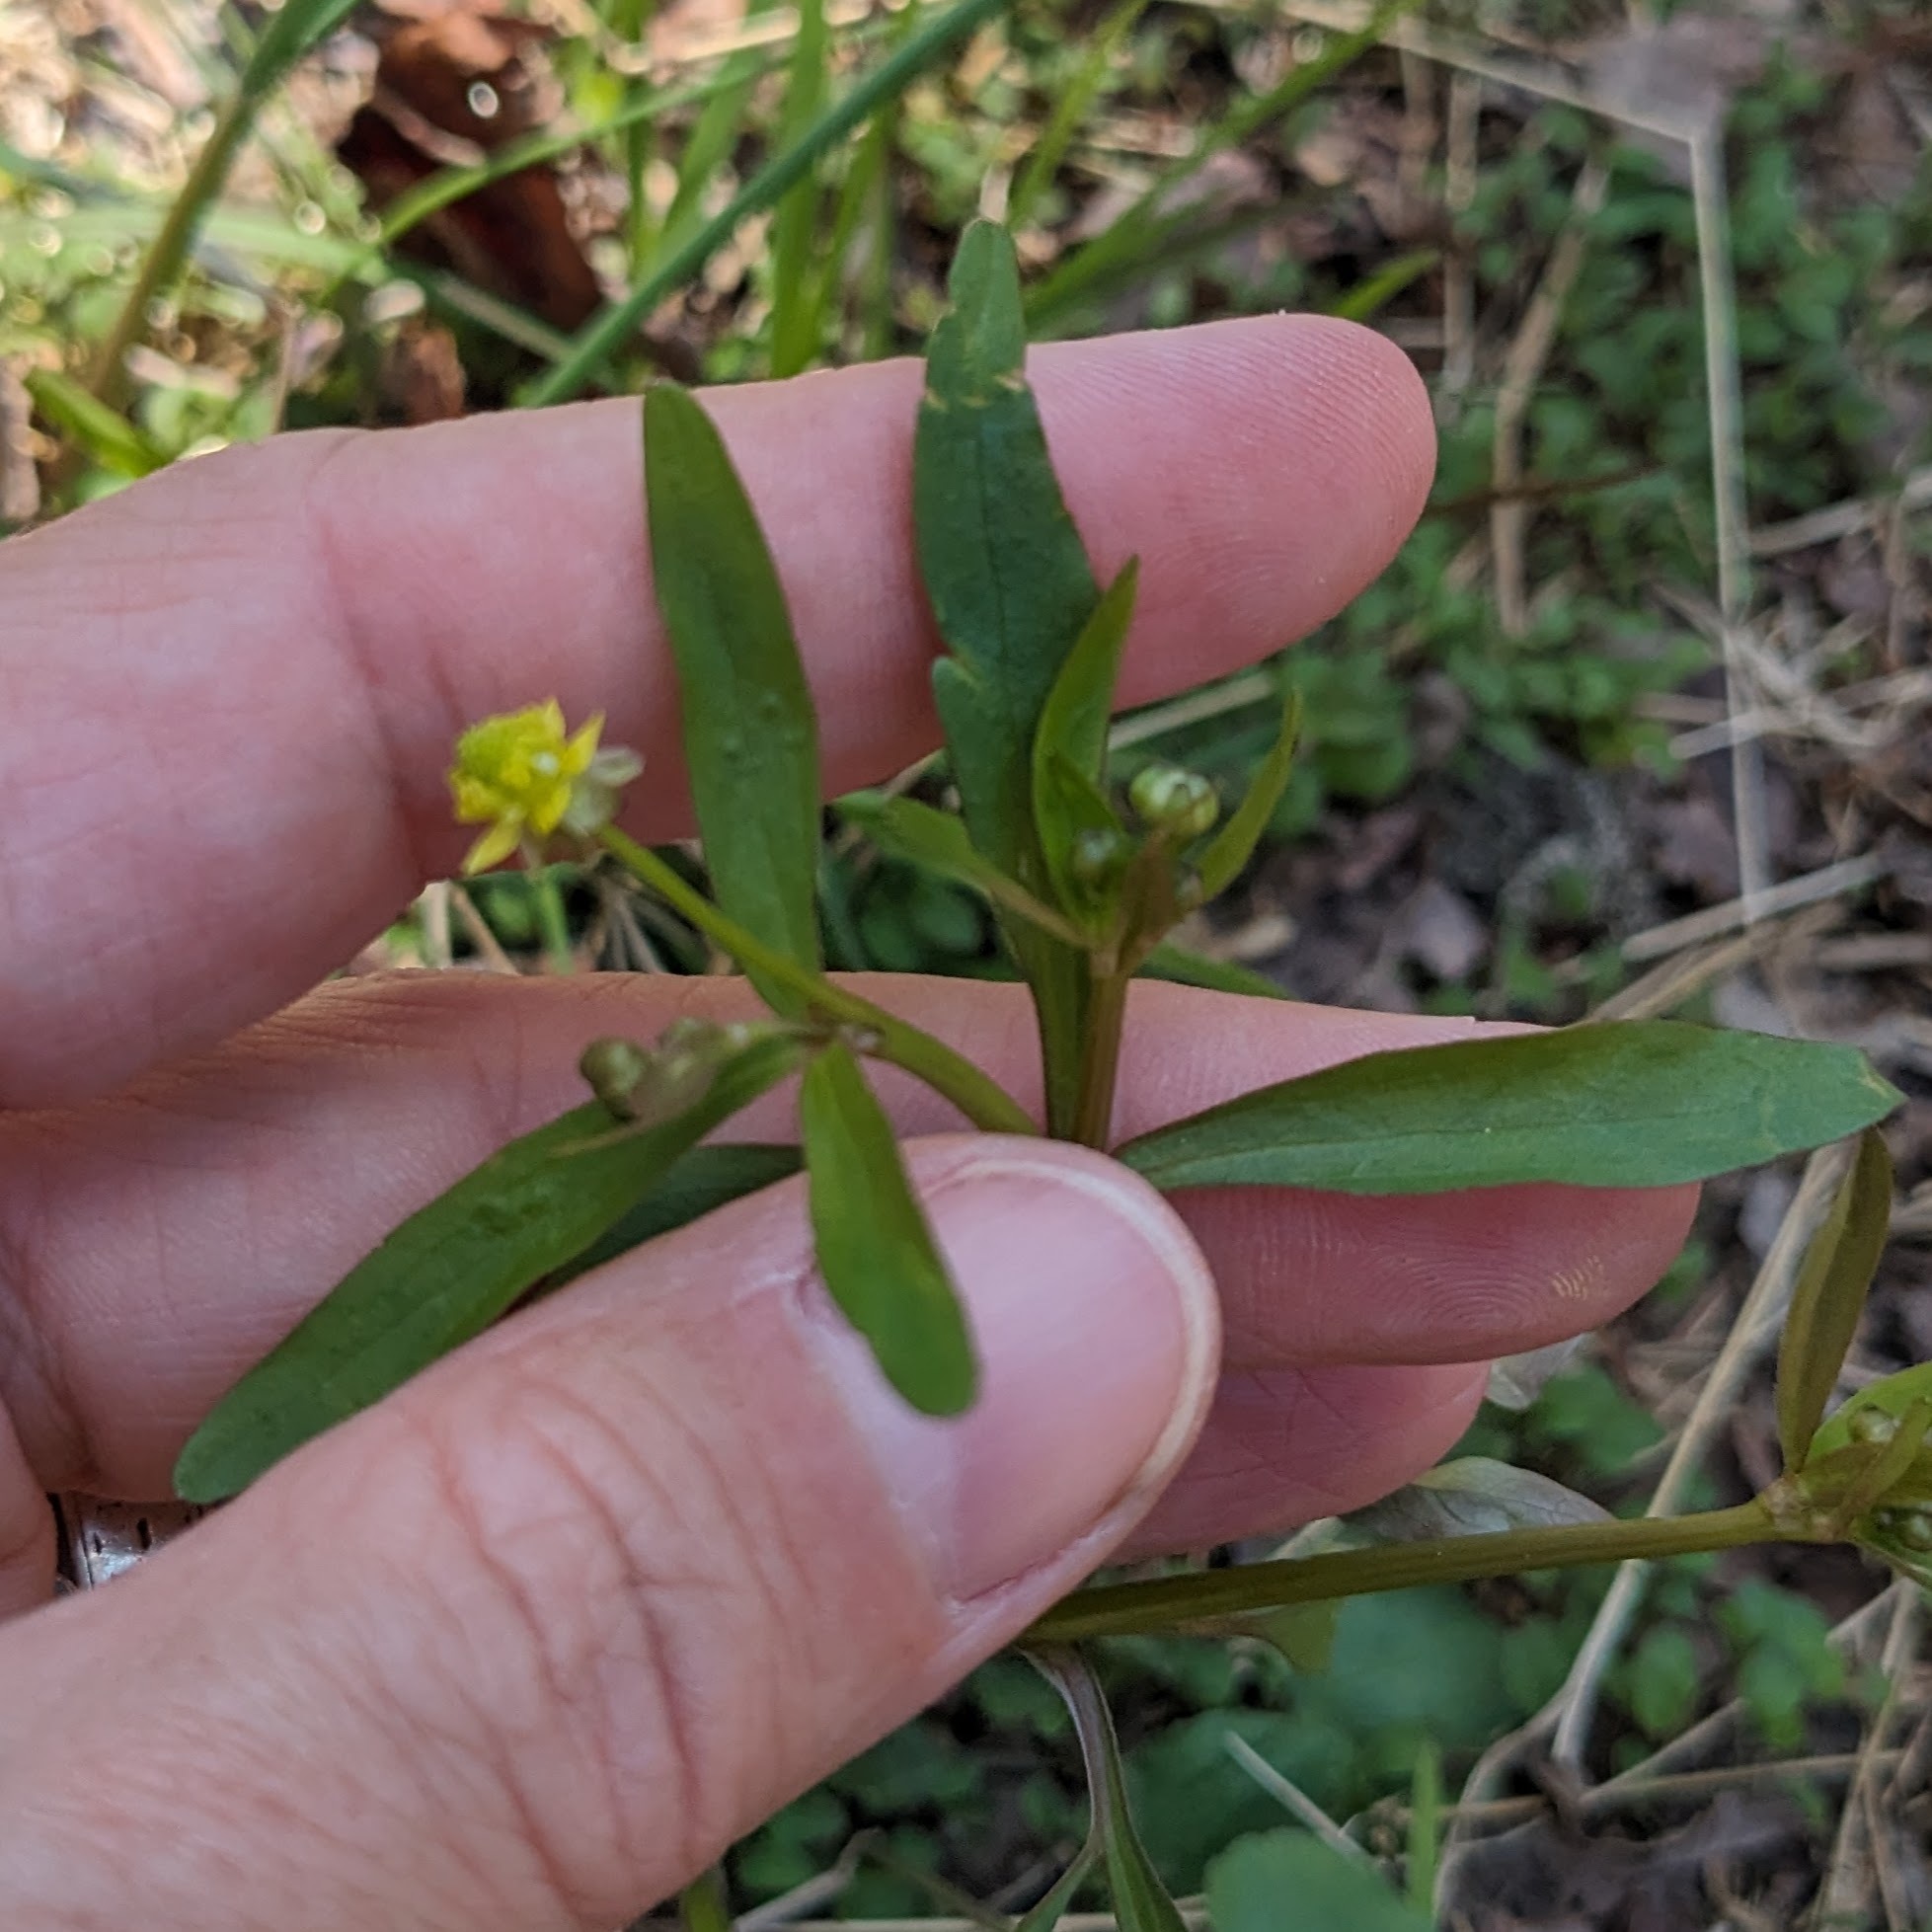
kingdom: Plantae
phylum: Tracheophyta
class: Magnoliopsida
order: Ranunculales
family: Ranunculaceae
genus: Ranunculus
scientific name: Ranunculus abortivus
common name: Early wood buttercup
